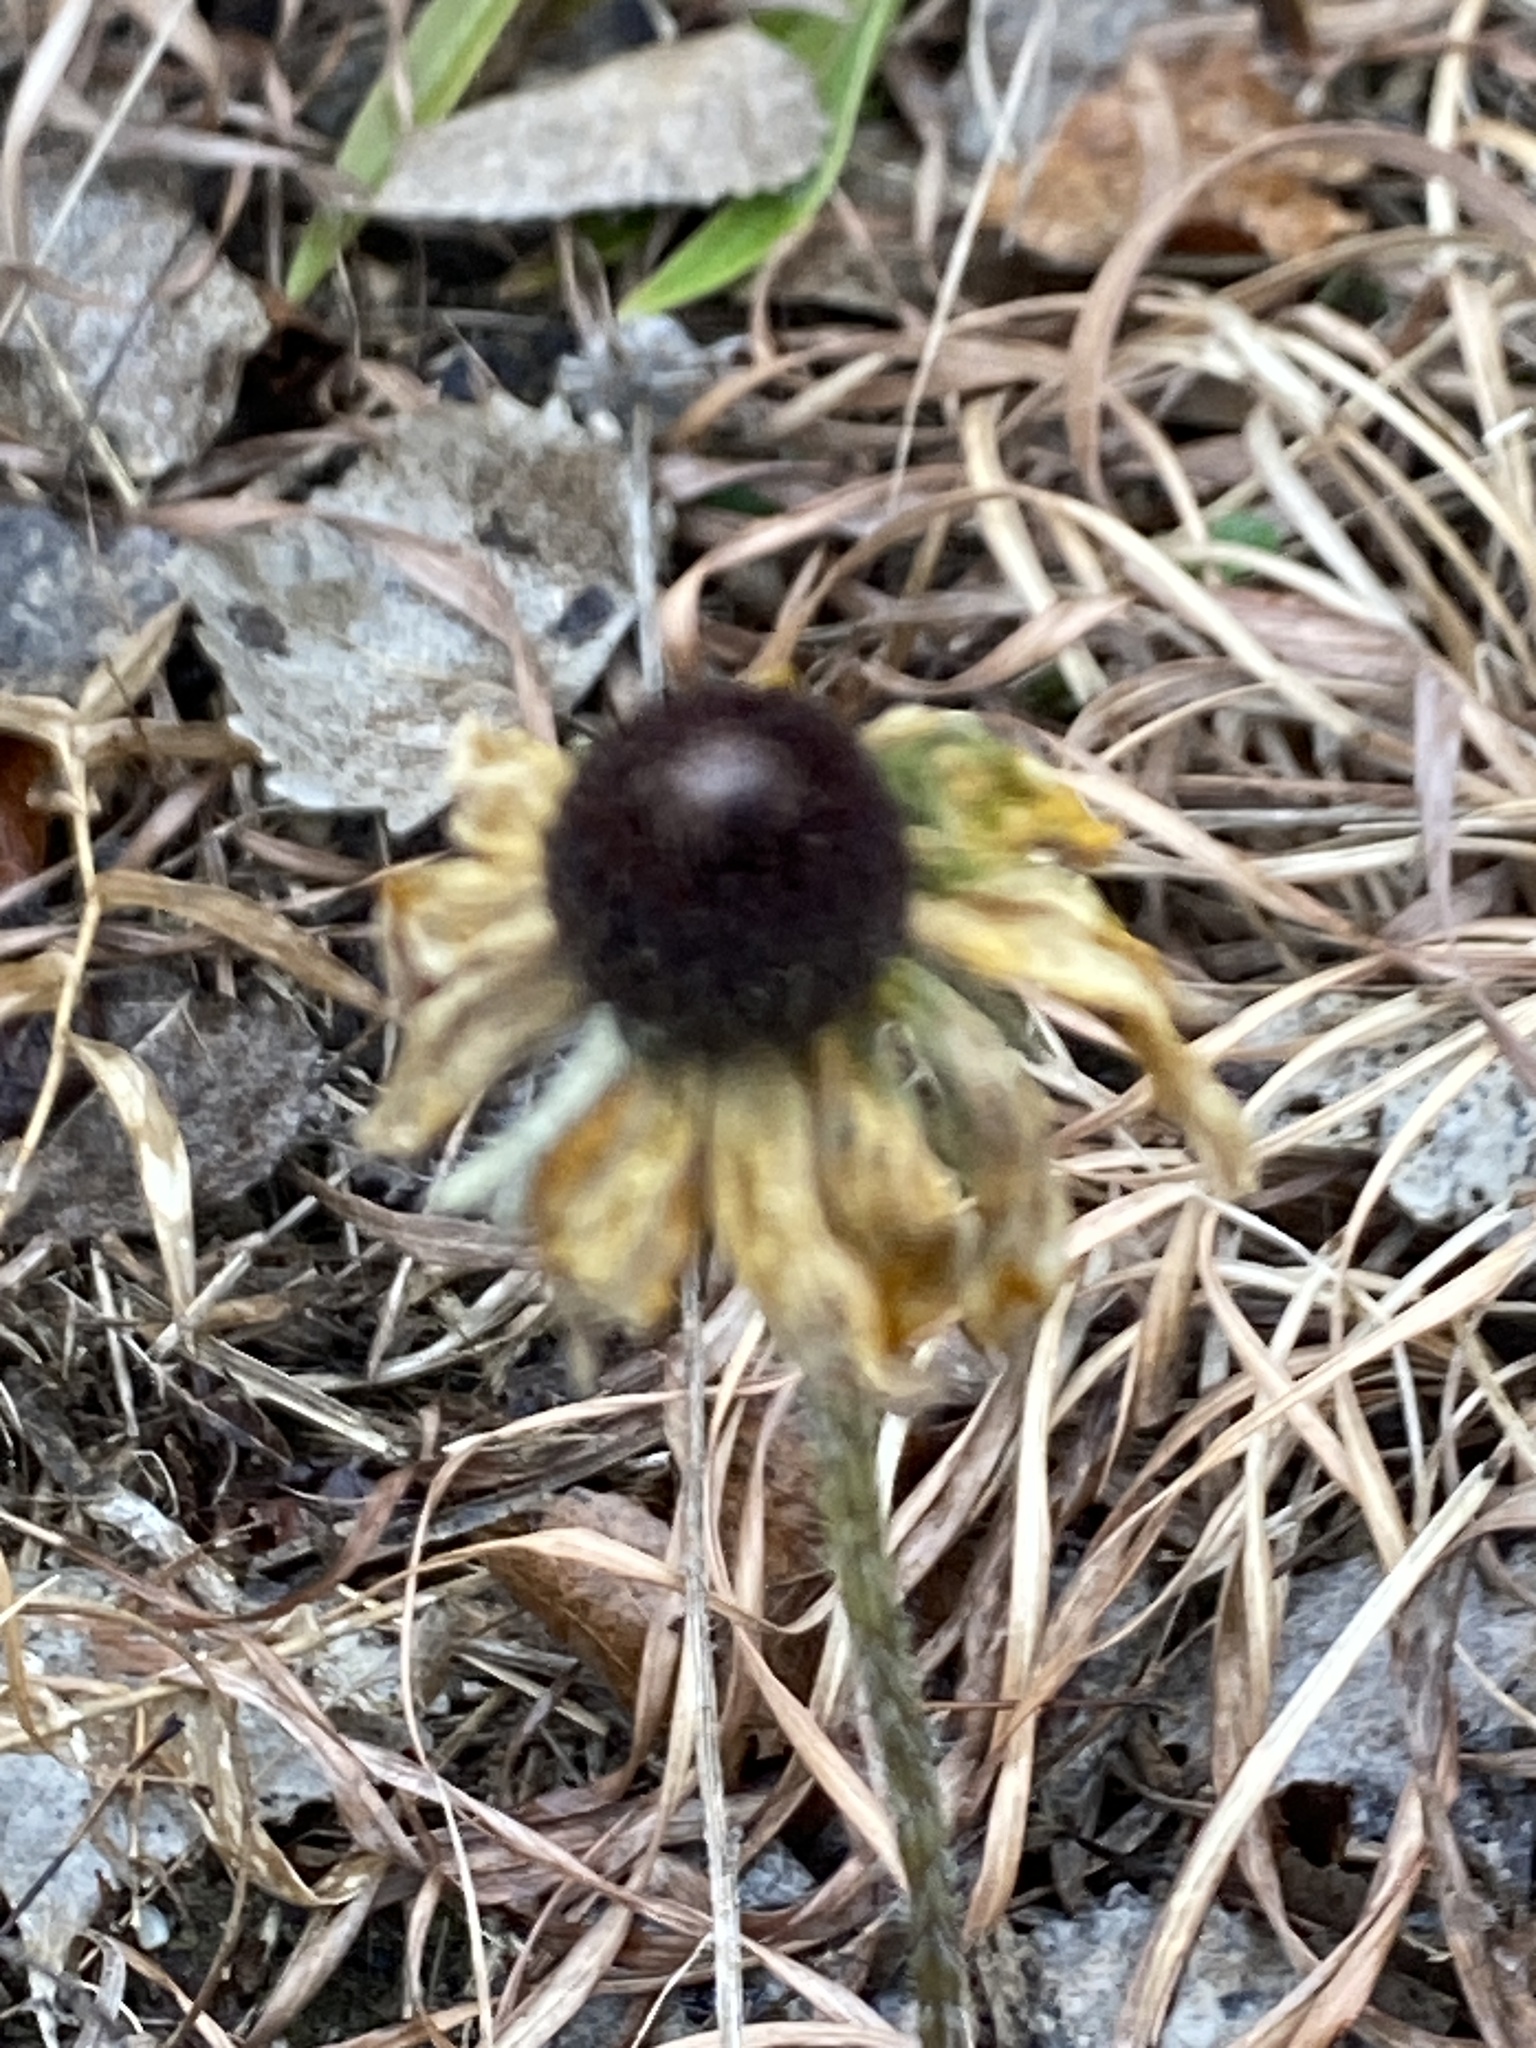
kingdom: Plantae
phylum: Tracheophyta
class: Magnoliopsida
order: Asterales
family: Asteraceae
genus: Rudbeckia
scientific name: Rudbeckia hirta
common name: Black-eyed-susan
